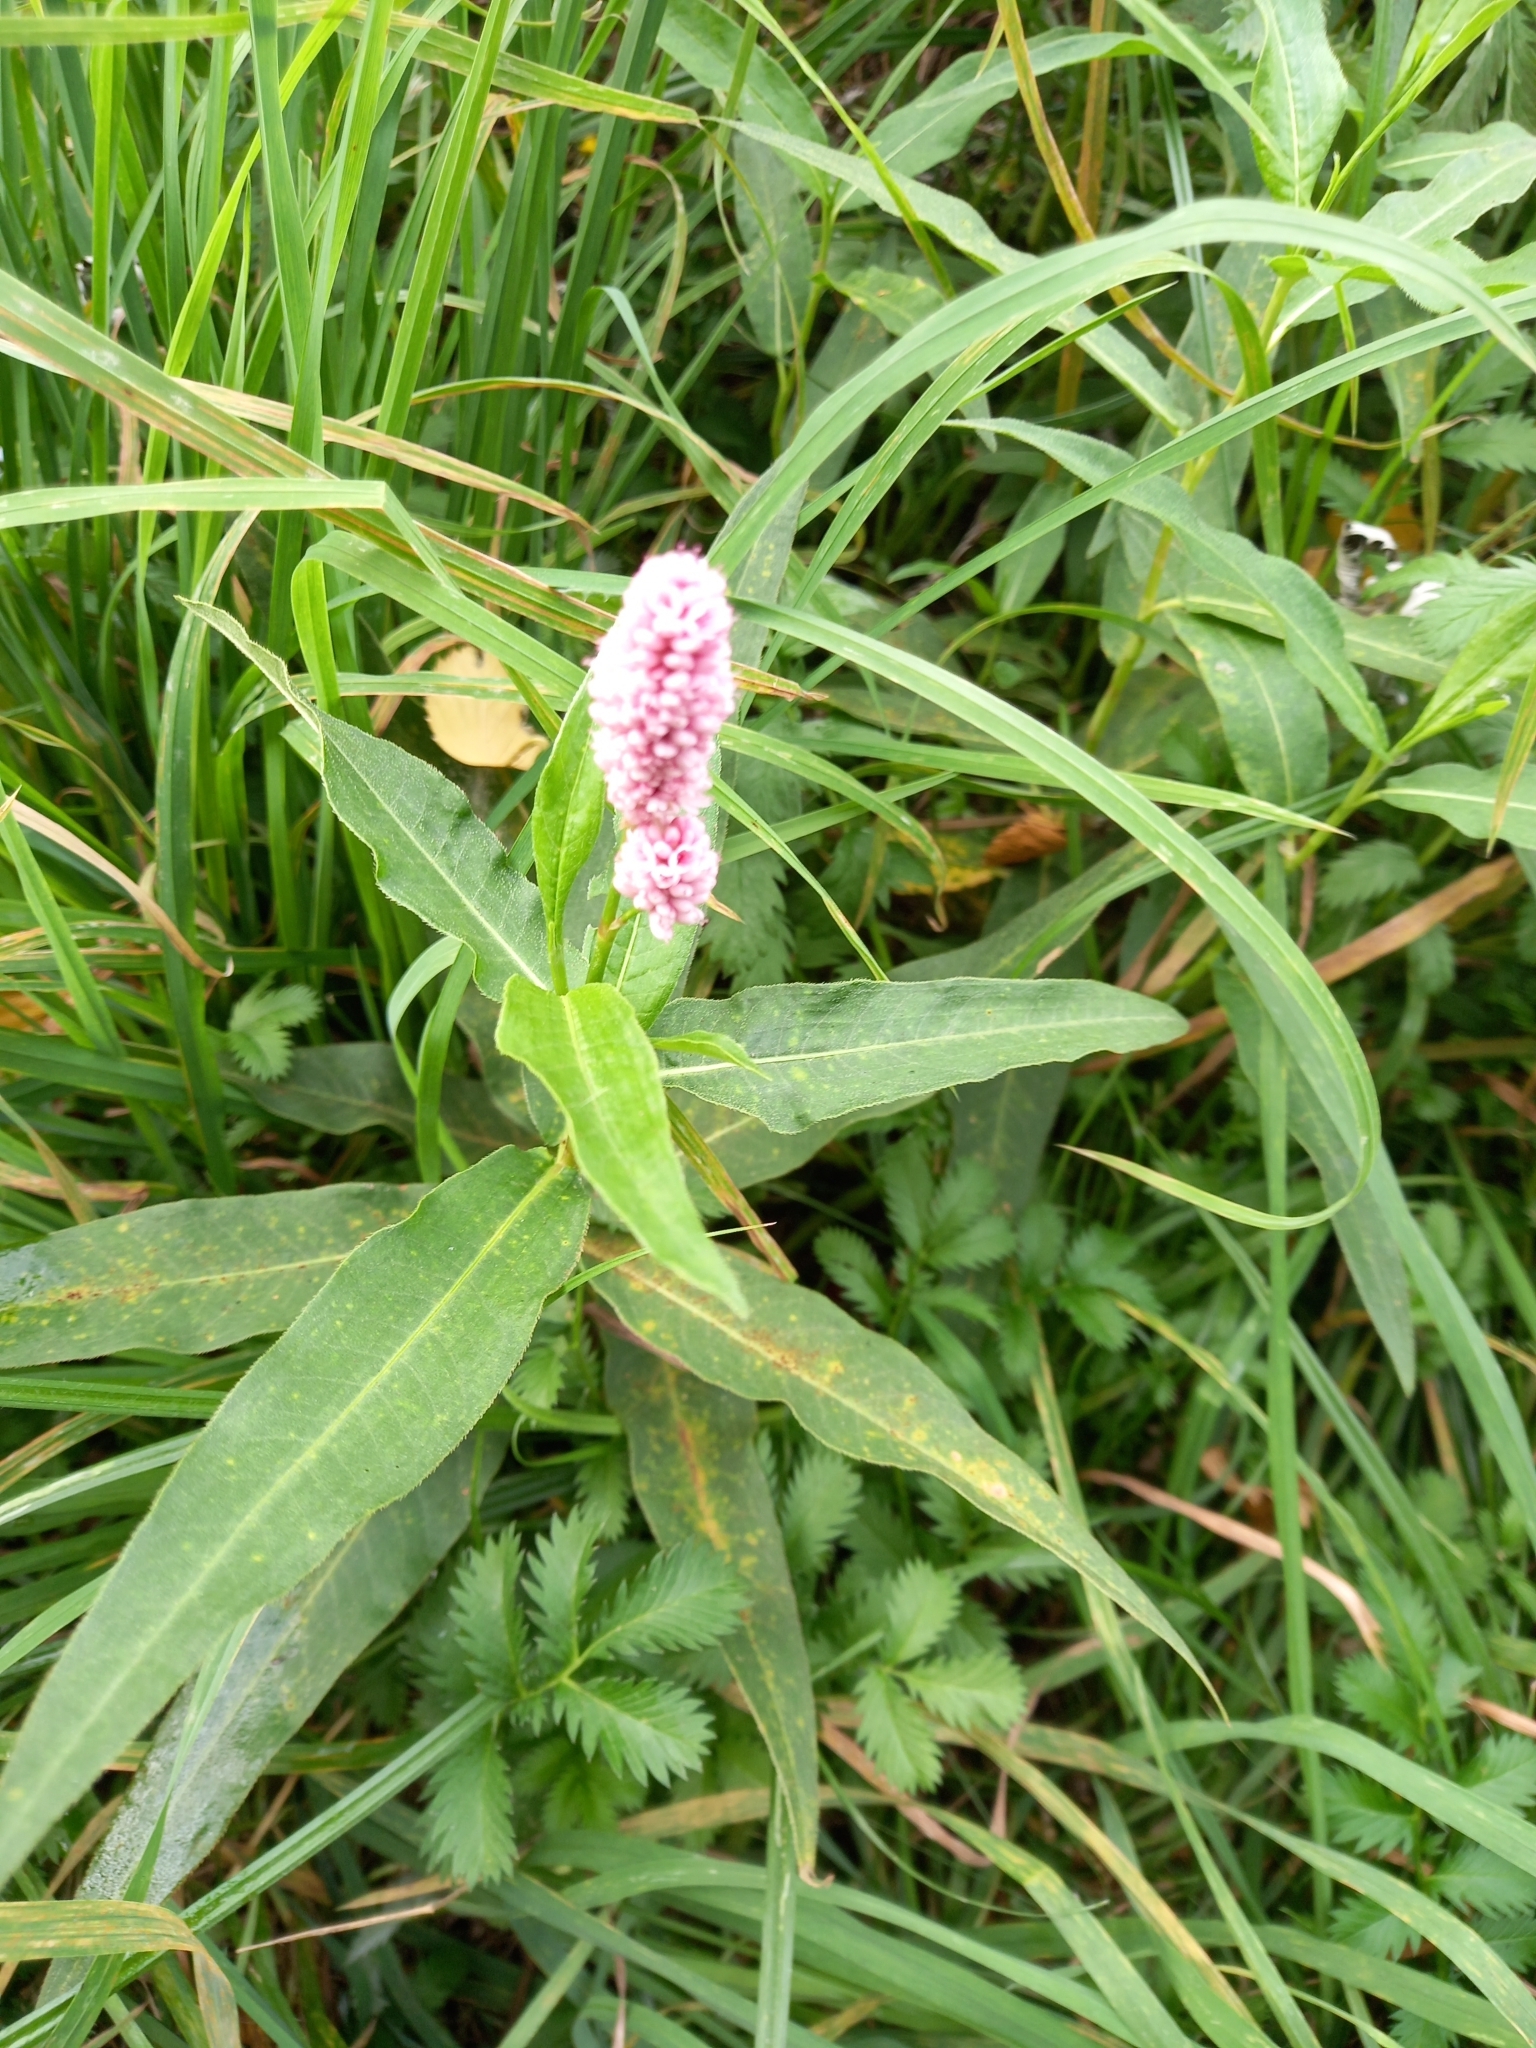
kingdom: Plantae
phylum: Tracheophyta
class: Magnoliopsida
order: Caryophyllales
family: Polygonaceae
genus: Persicaria
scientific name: Persicaria amphibia
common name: Amphibious bistort
